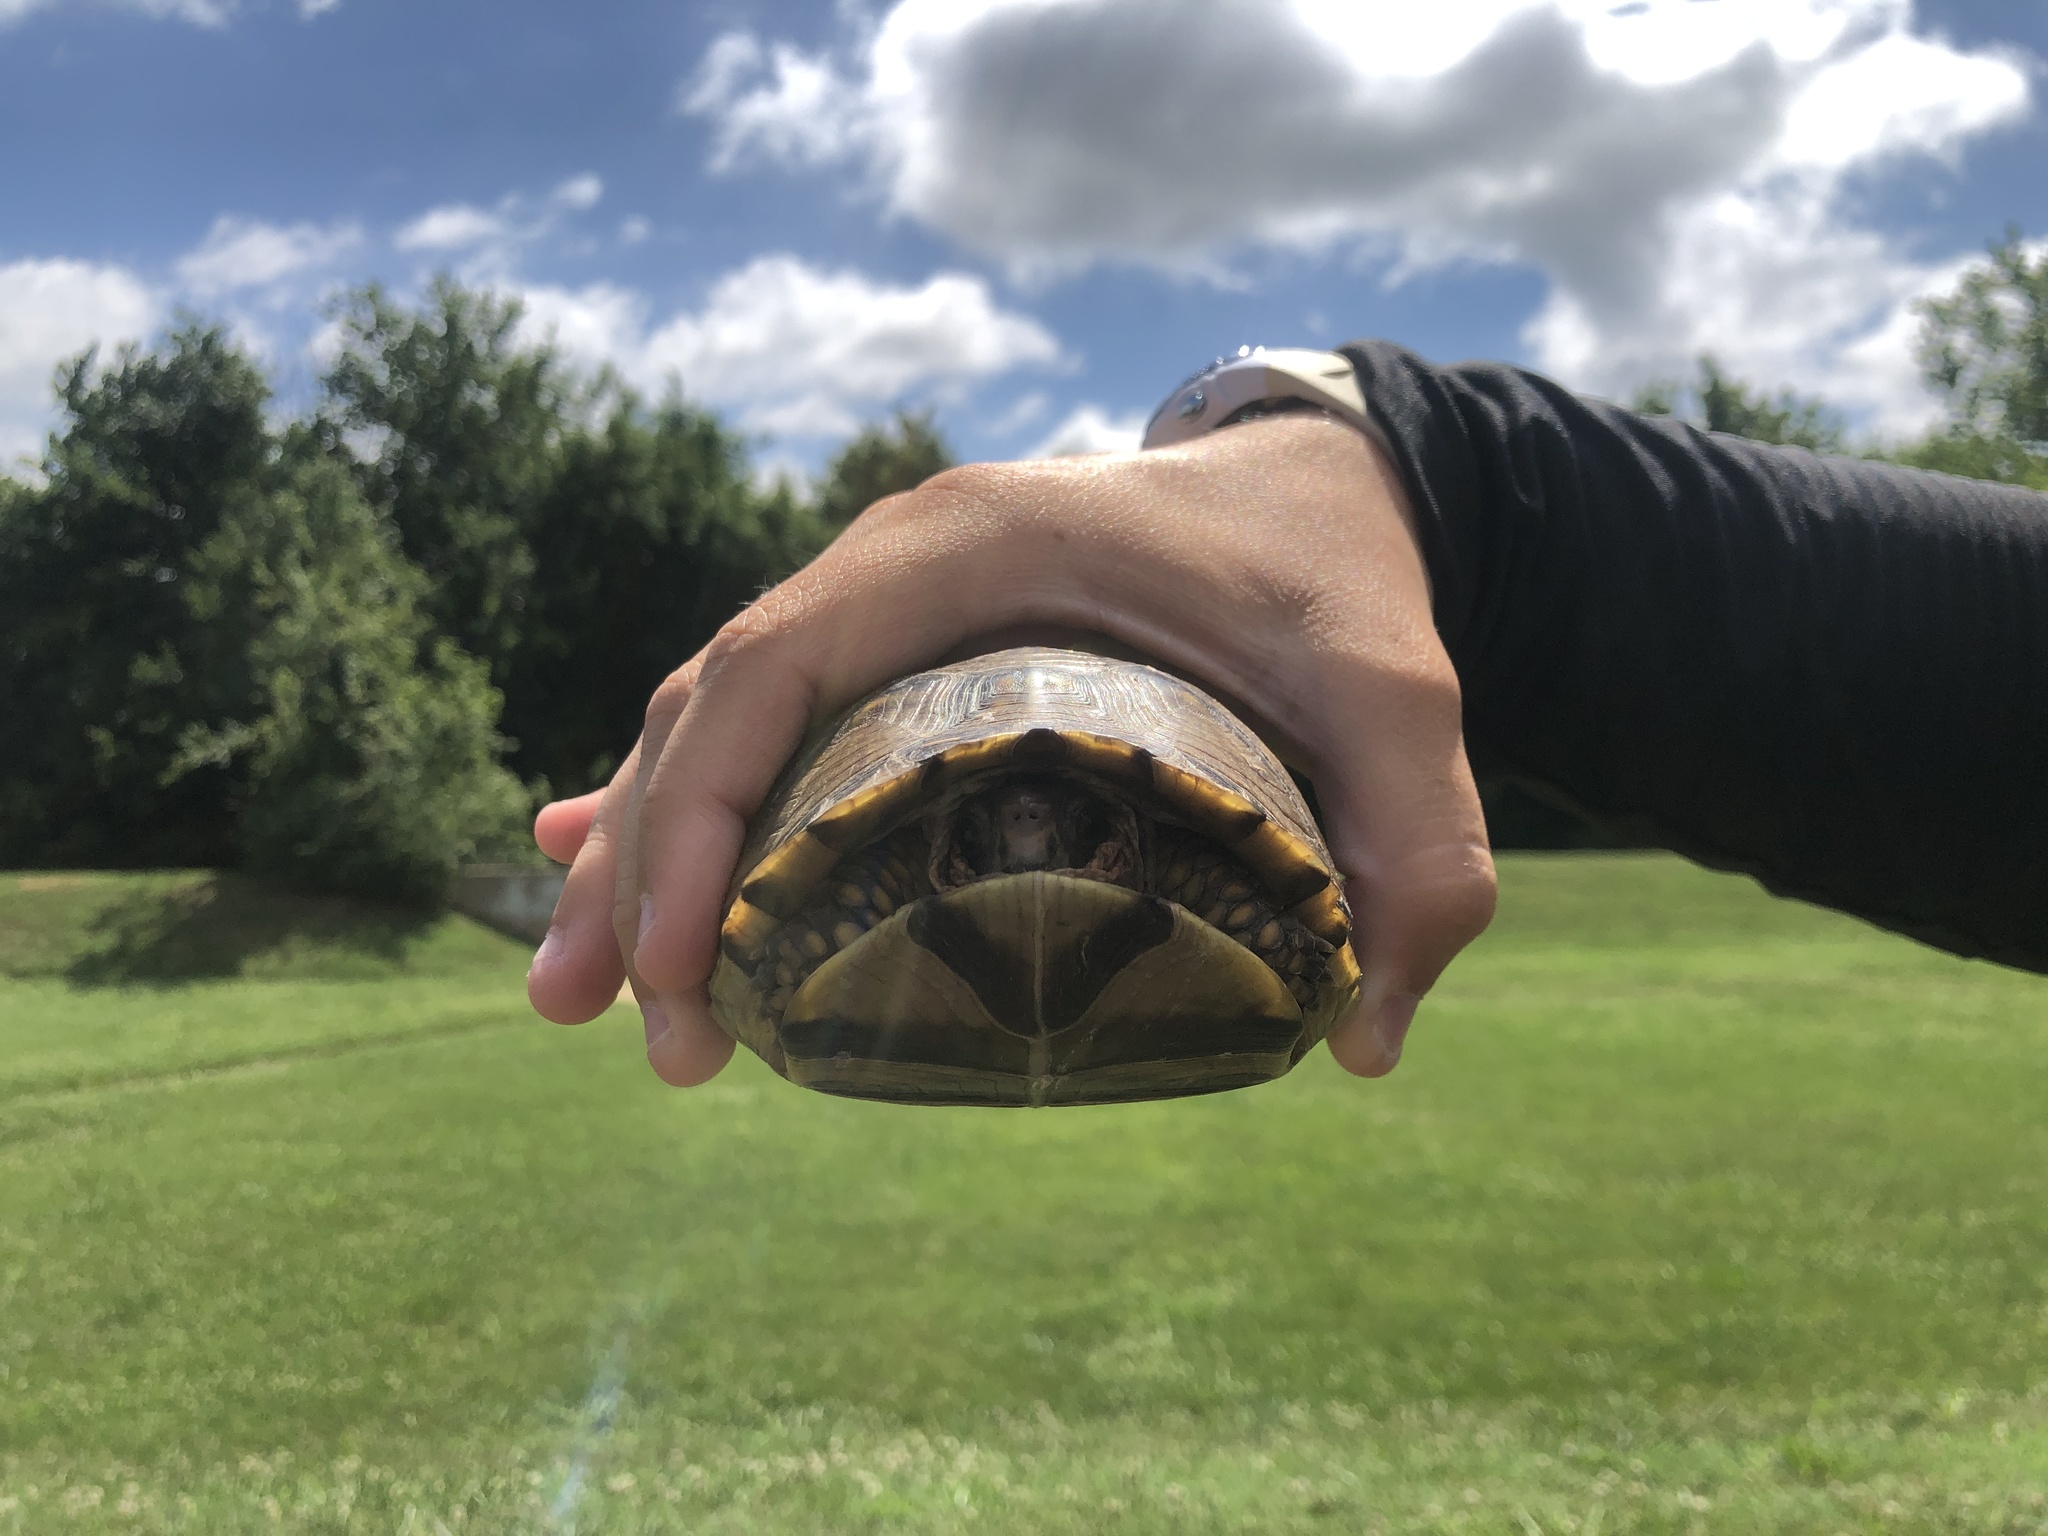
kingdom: Animalia
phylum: Chordata
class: Testudines
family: Emydidae
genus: Terrapene
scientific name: Terrapene carolina
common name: Common box turtle
